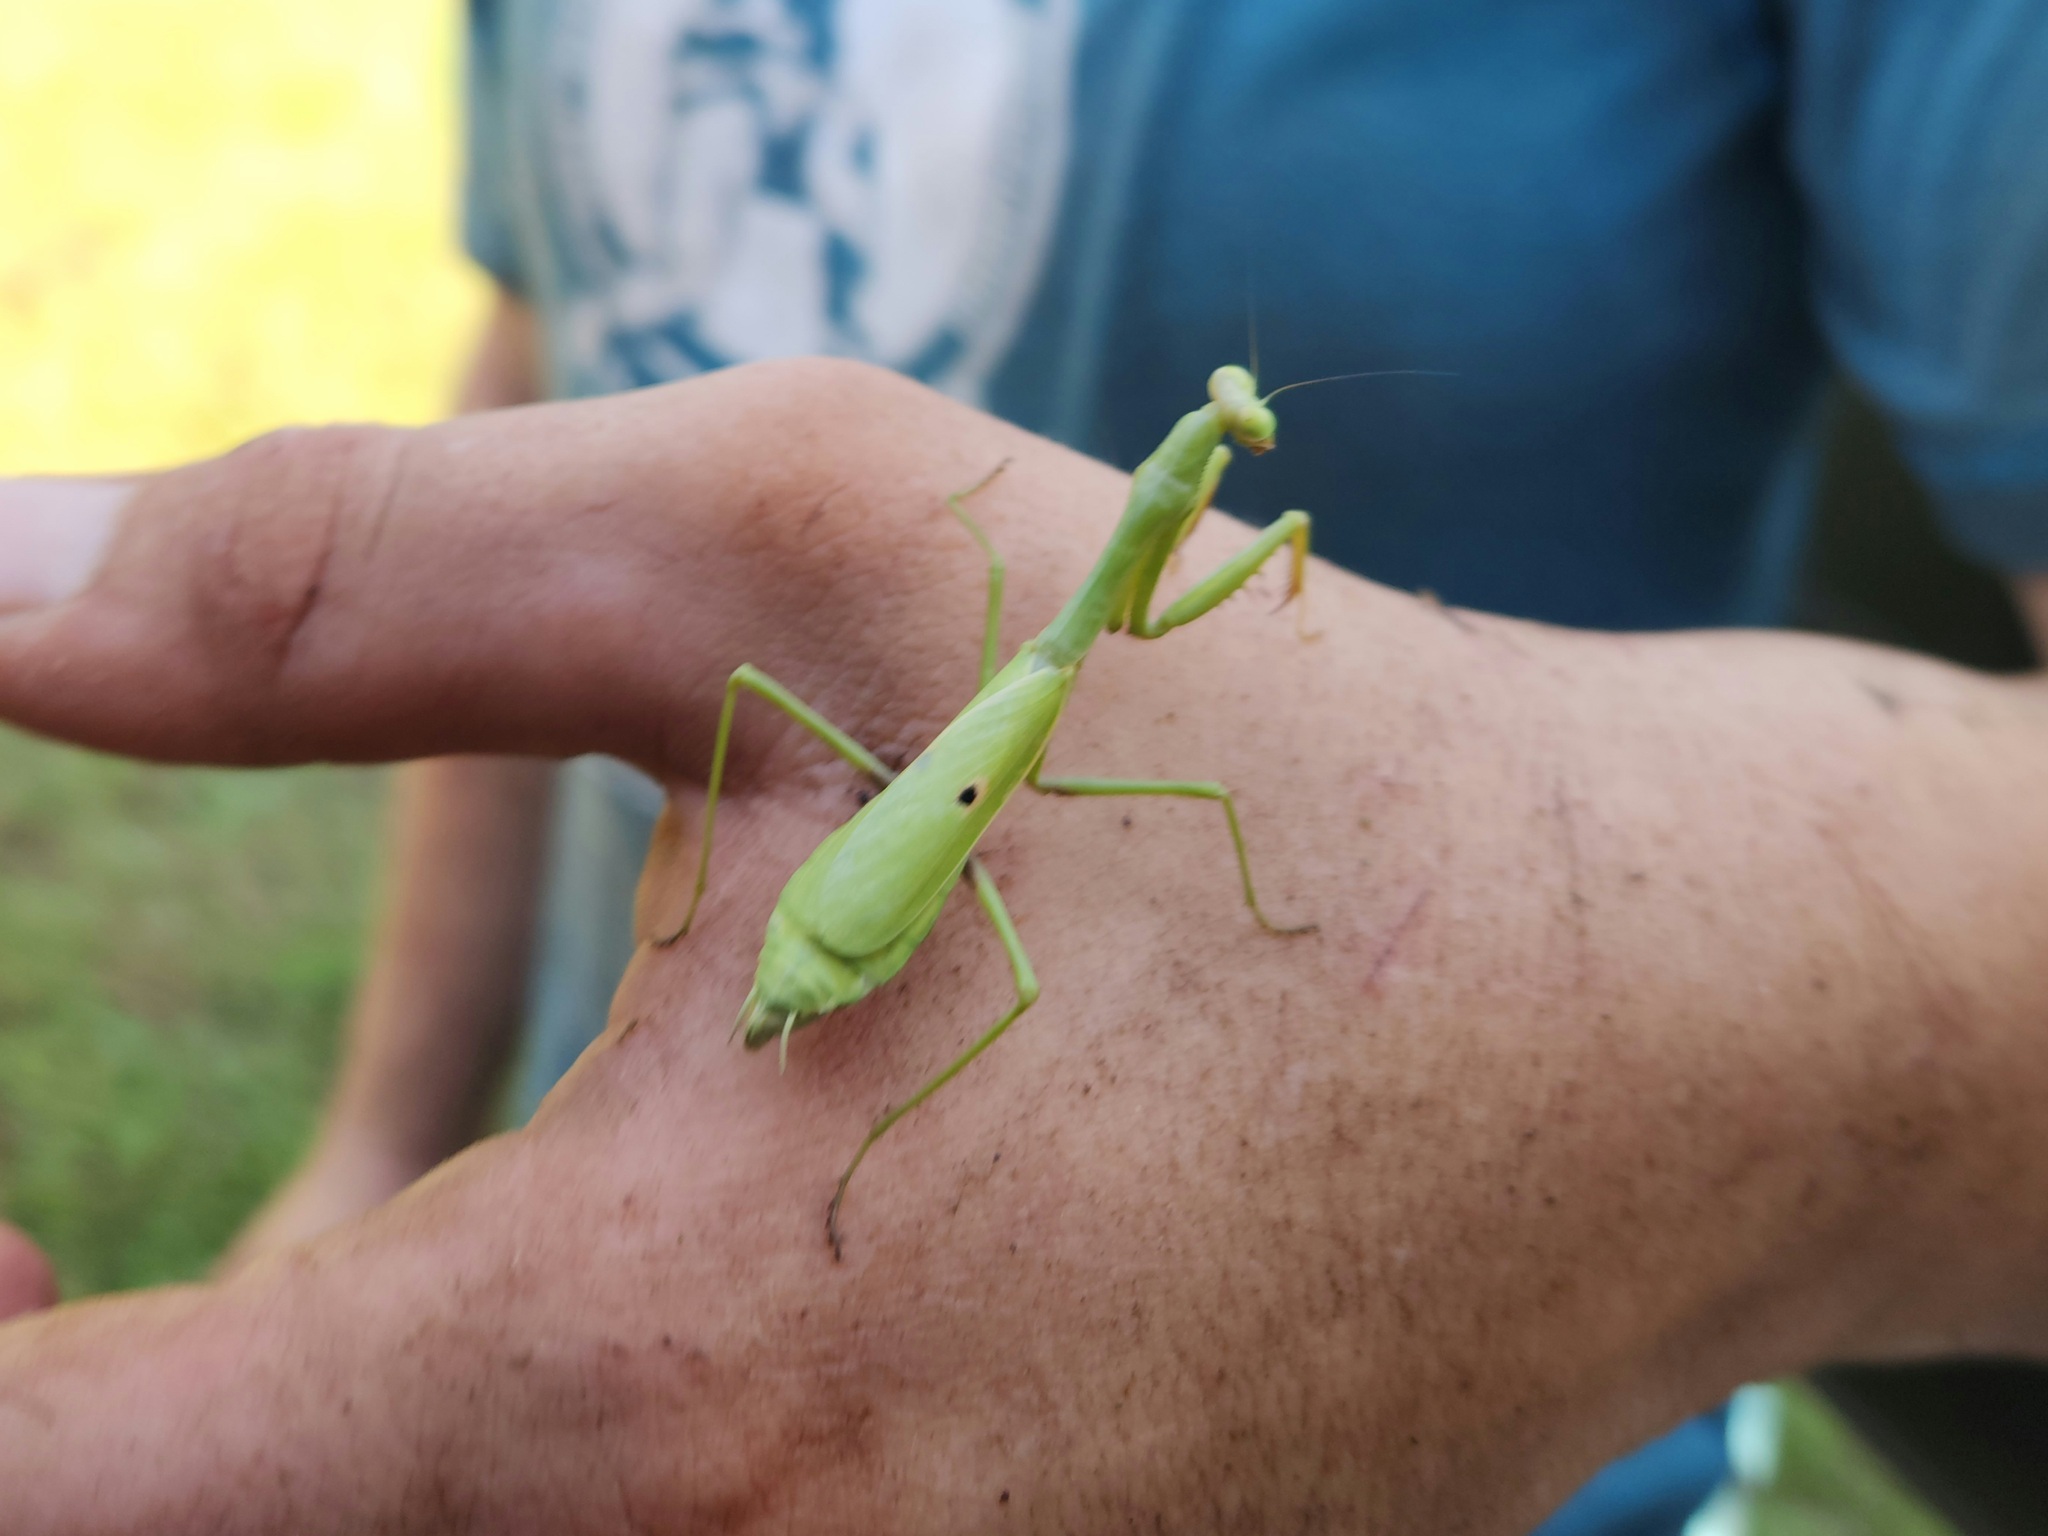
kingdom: Animalia
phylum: Arthropoda
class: Insecta
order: Mantodea
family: Mantidae
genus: Stagmomantis
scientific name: Stagmomantis carolina
